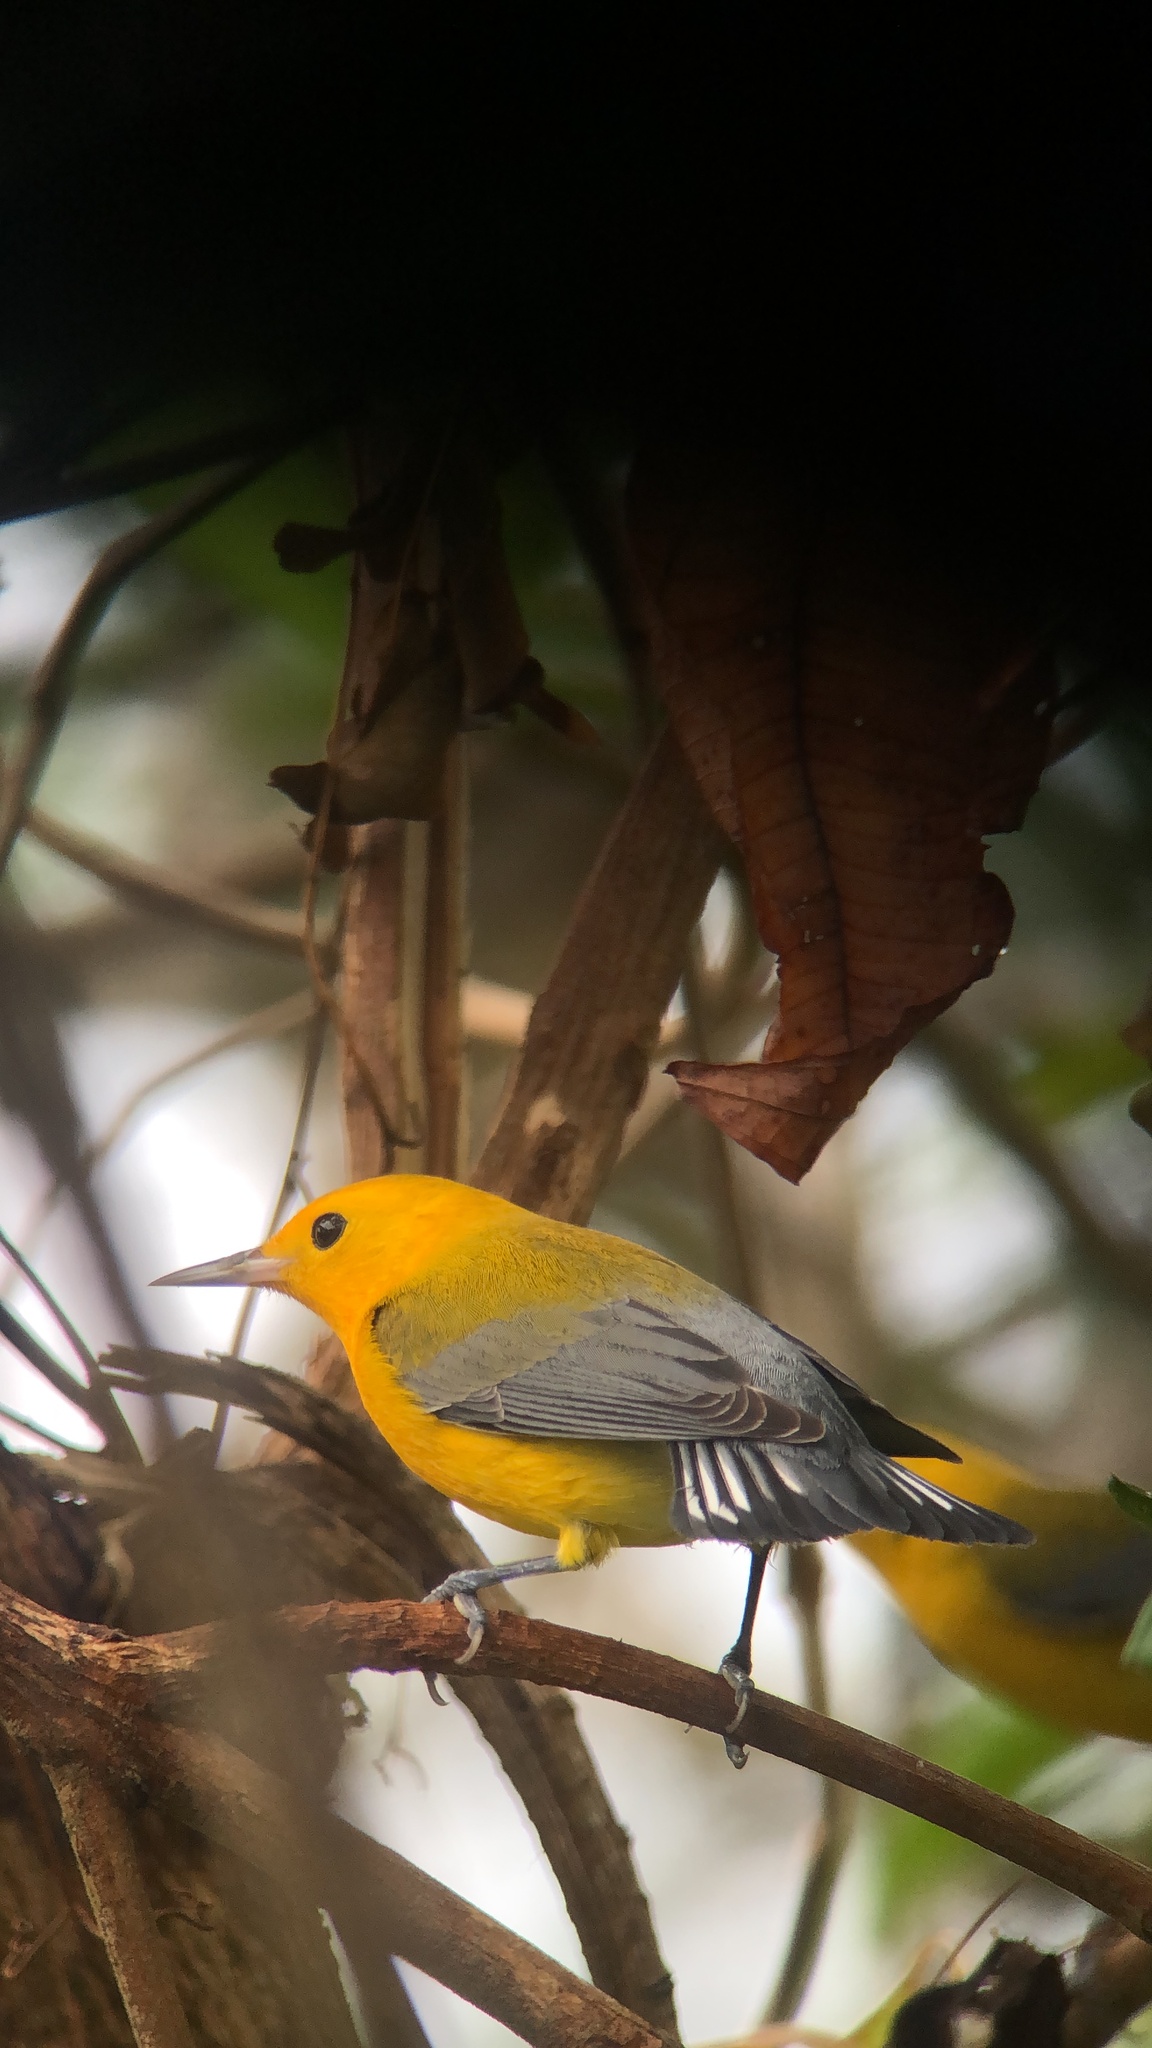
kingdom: Animalia
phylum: Chordata
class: Aves
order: Passeriformes
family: Parulidae
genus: Protonotaria
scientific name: Protonotaria citrea
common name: Prothonotary warbler
